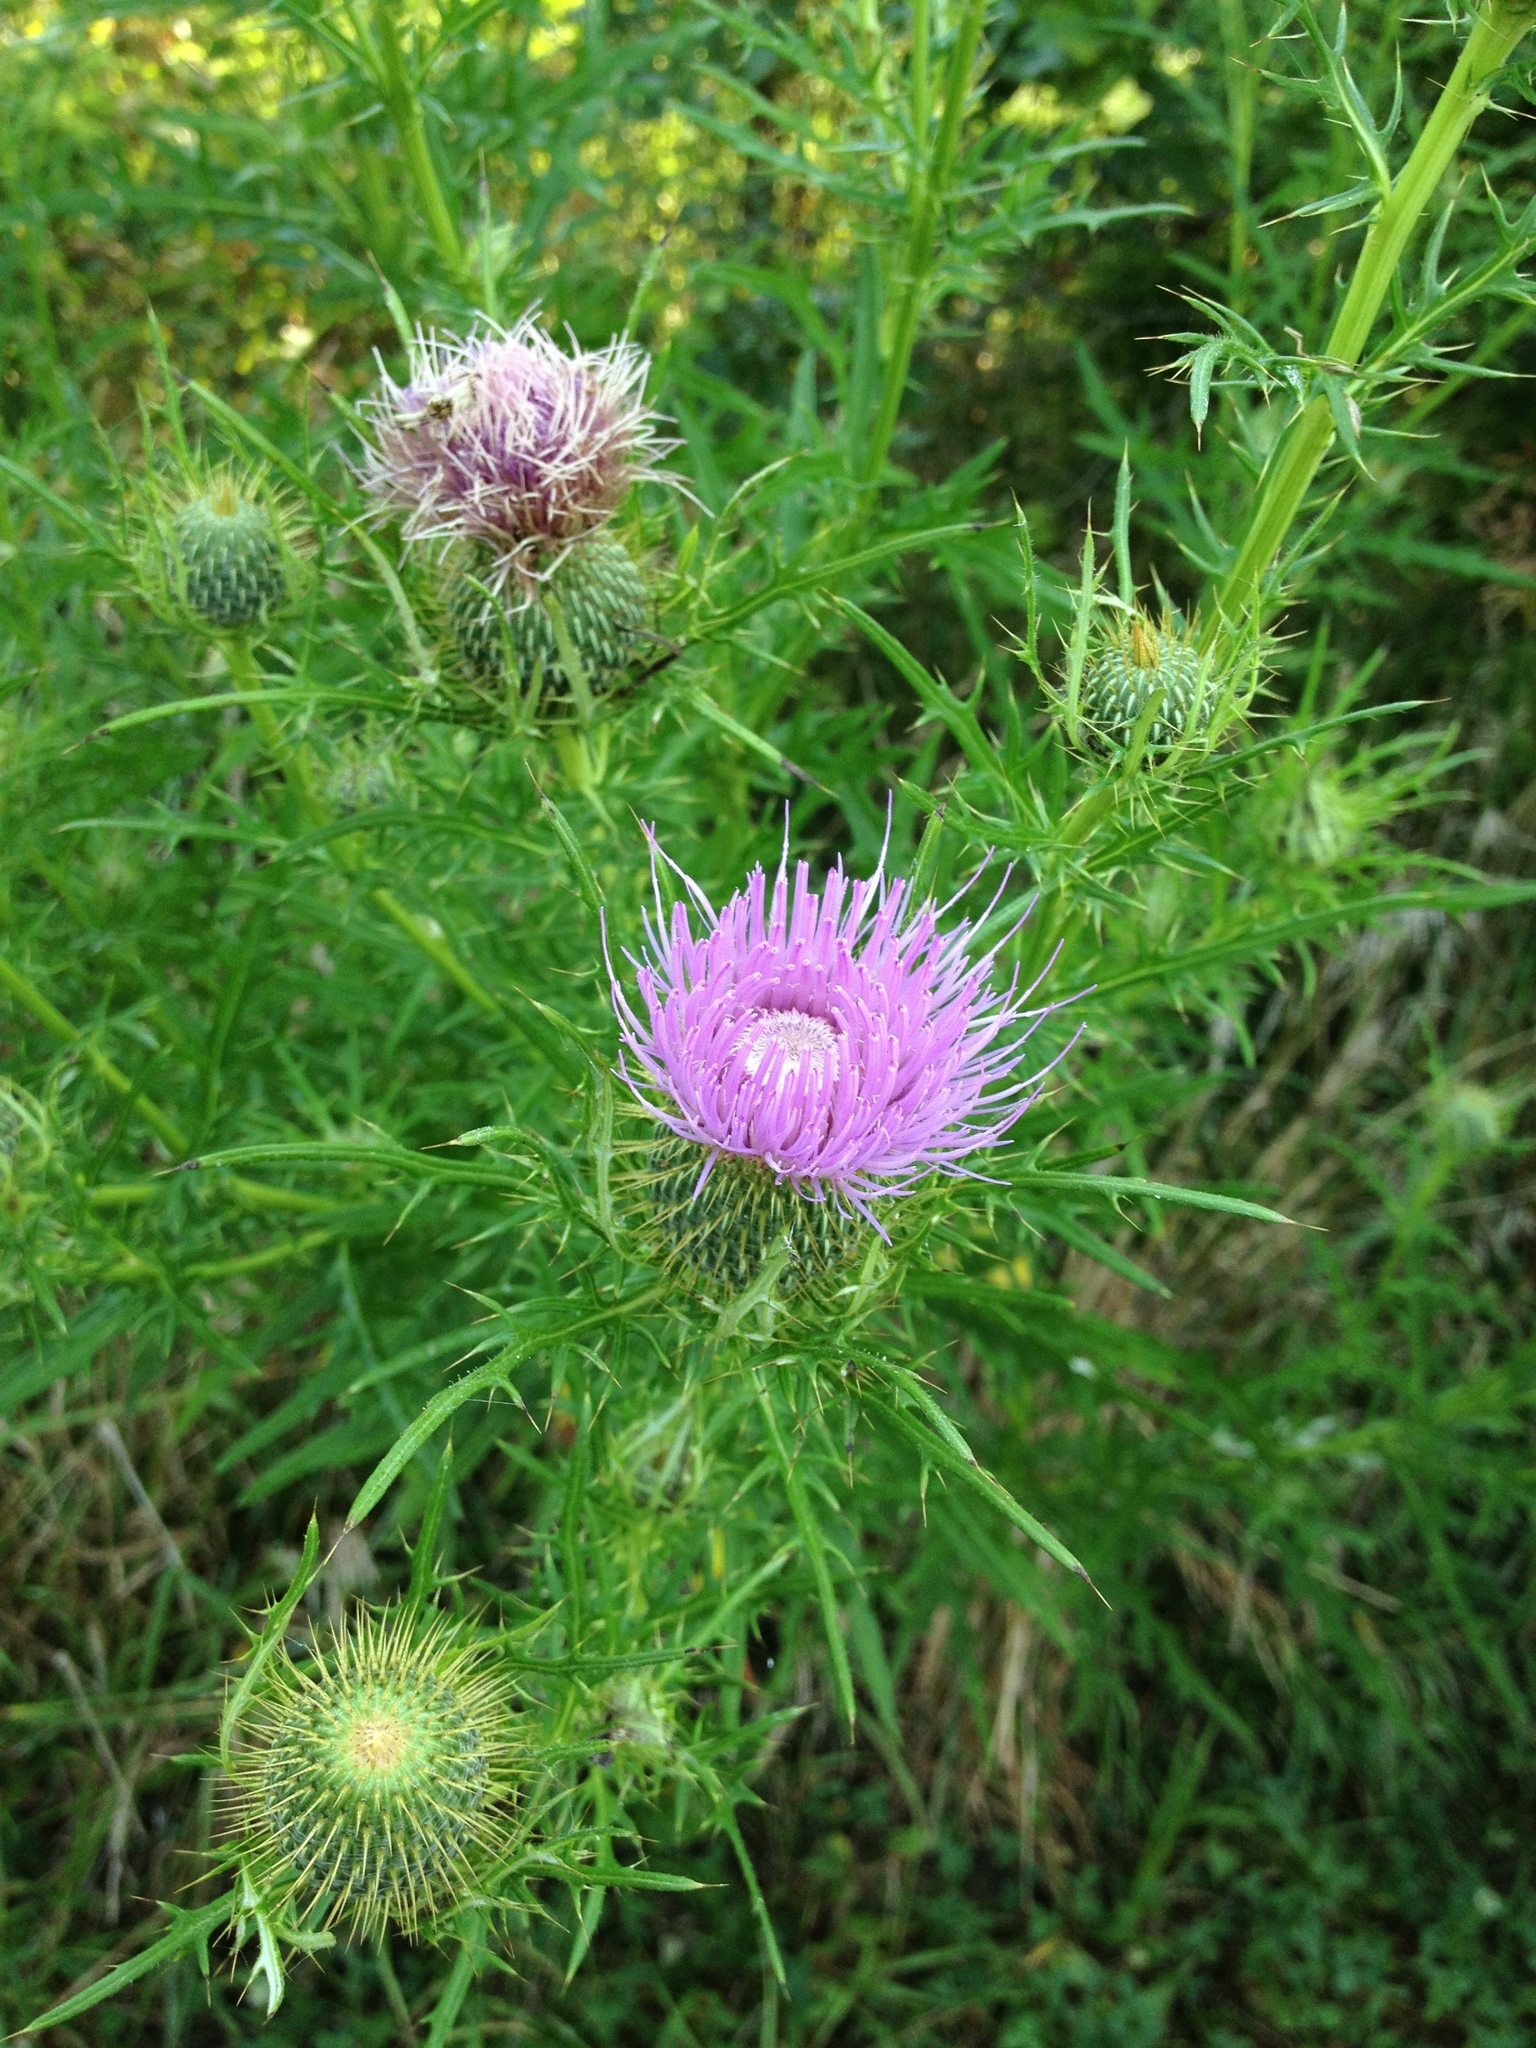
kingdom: Plantae
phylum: Tracheophyta
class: Magnoliopsida
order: Asterales
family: Asteraceae
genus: Cirsium
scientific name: Cirsium discolor
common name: Field thistle
